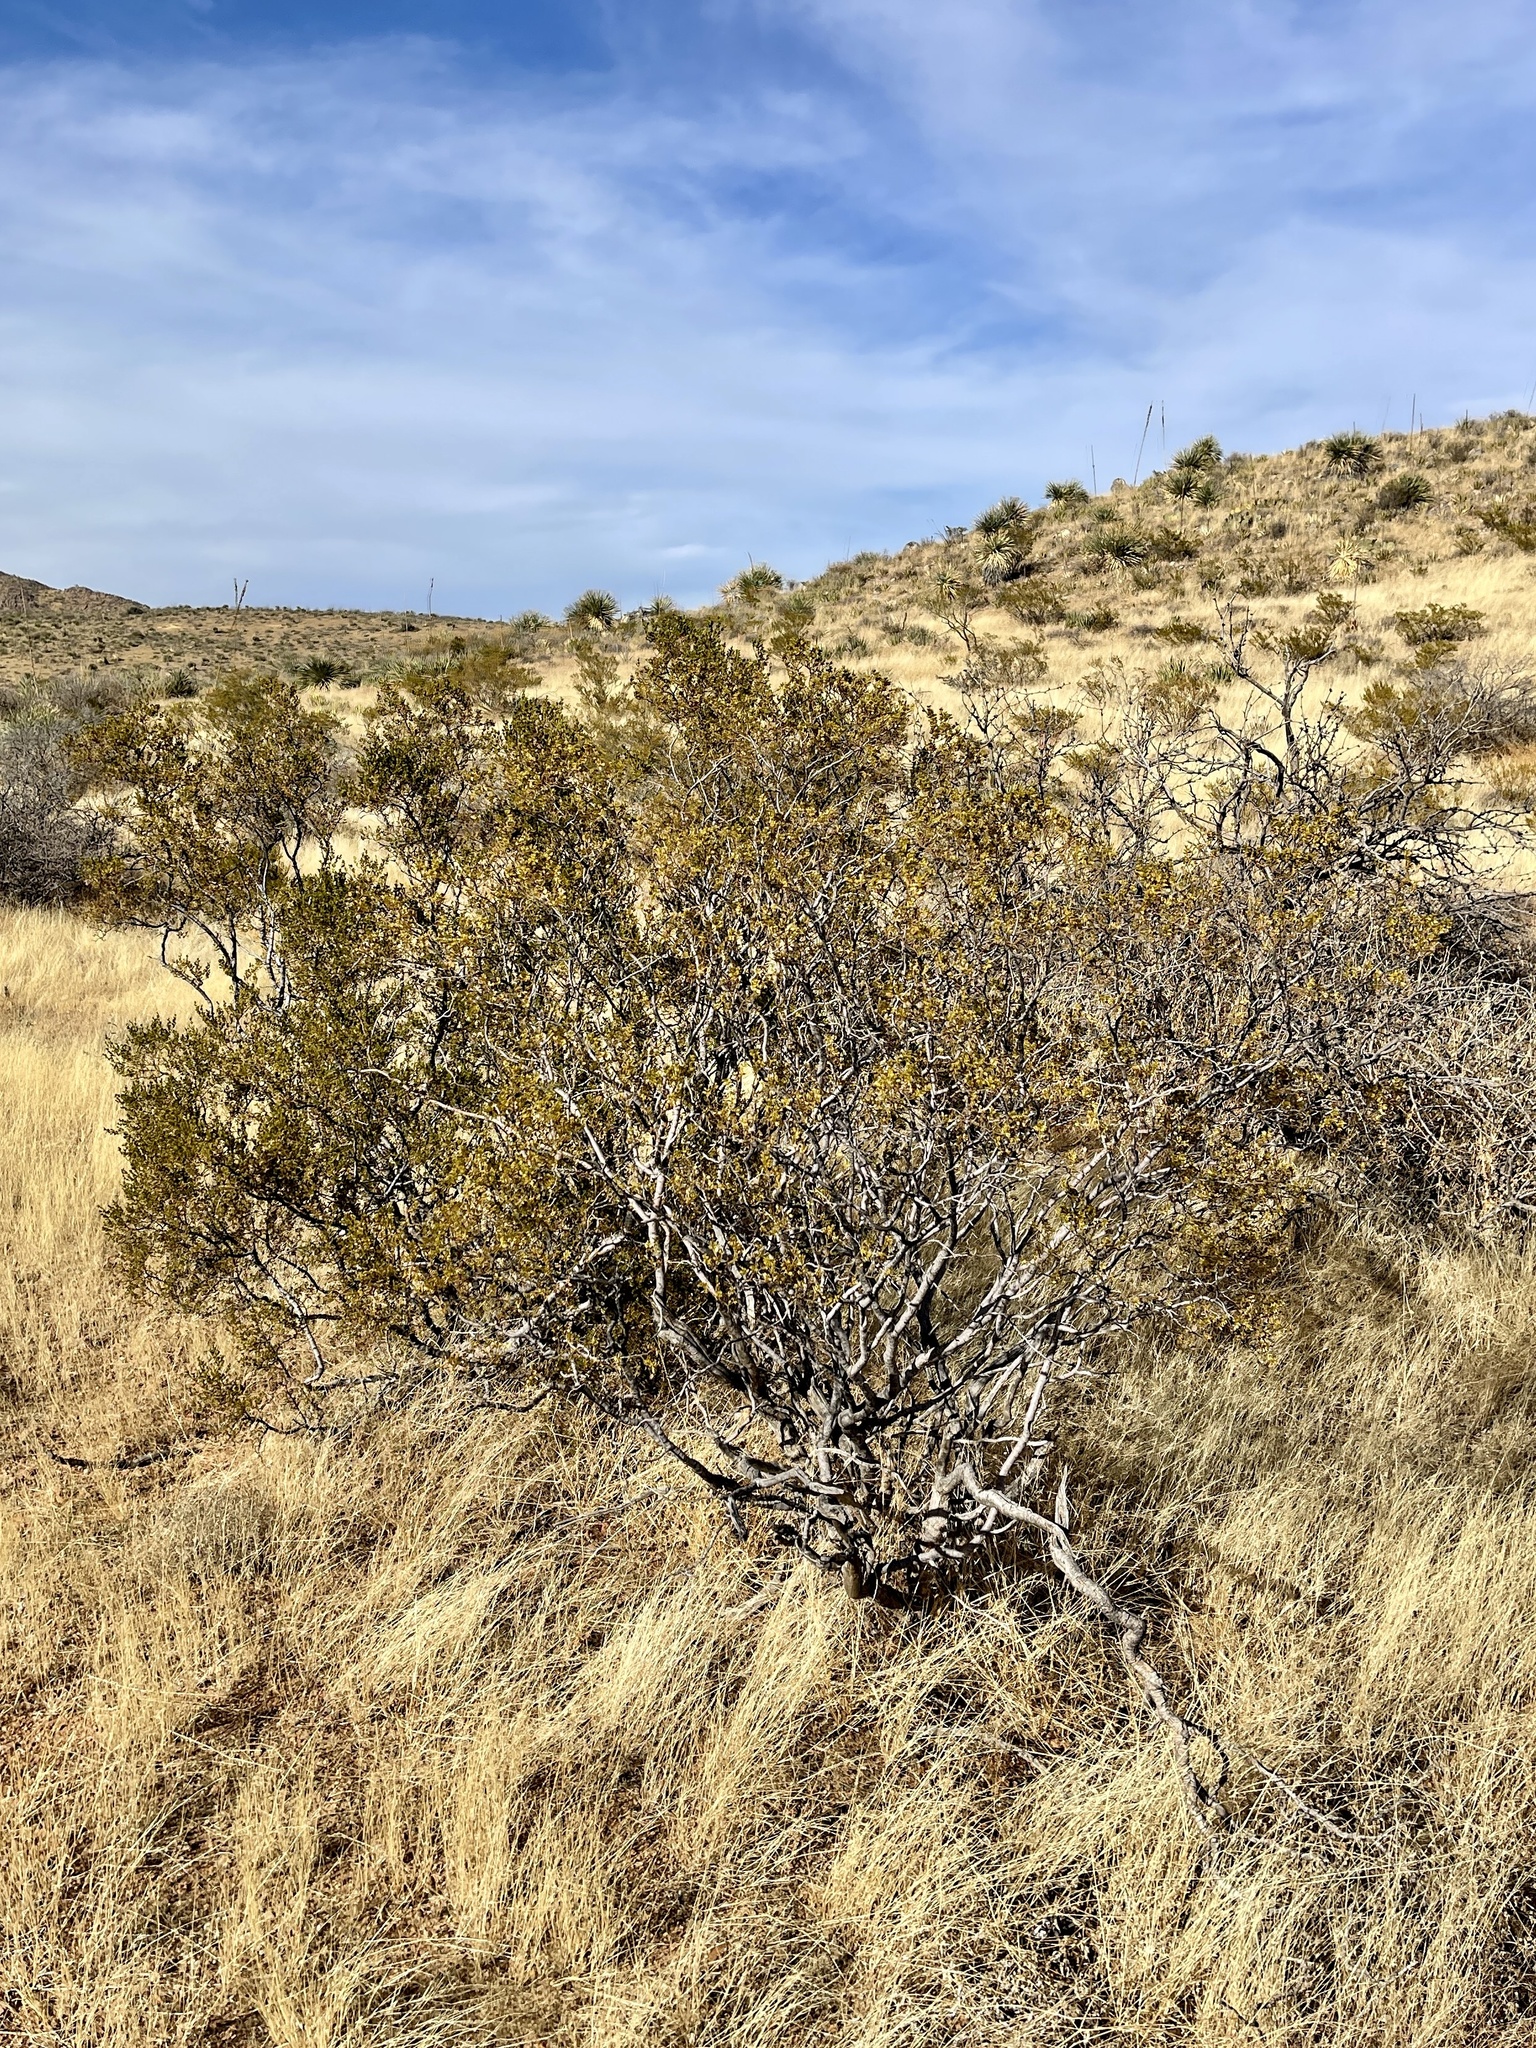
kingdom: Plantae
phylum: Tracheophyta
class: Magnoliopsida
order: Zygophyllales
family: Zygophyllaceae
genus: Larrea
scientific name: Larrea tridentata
